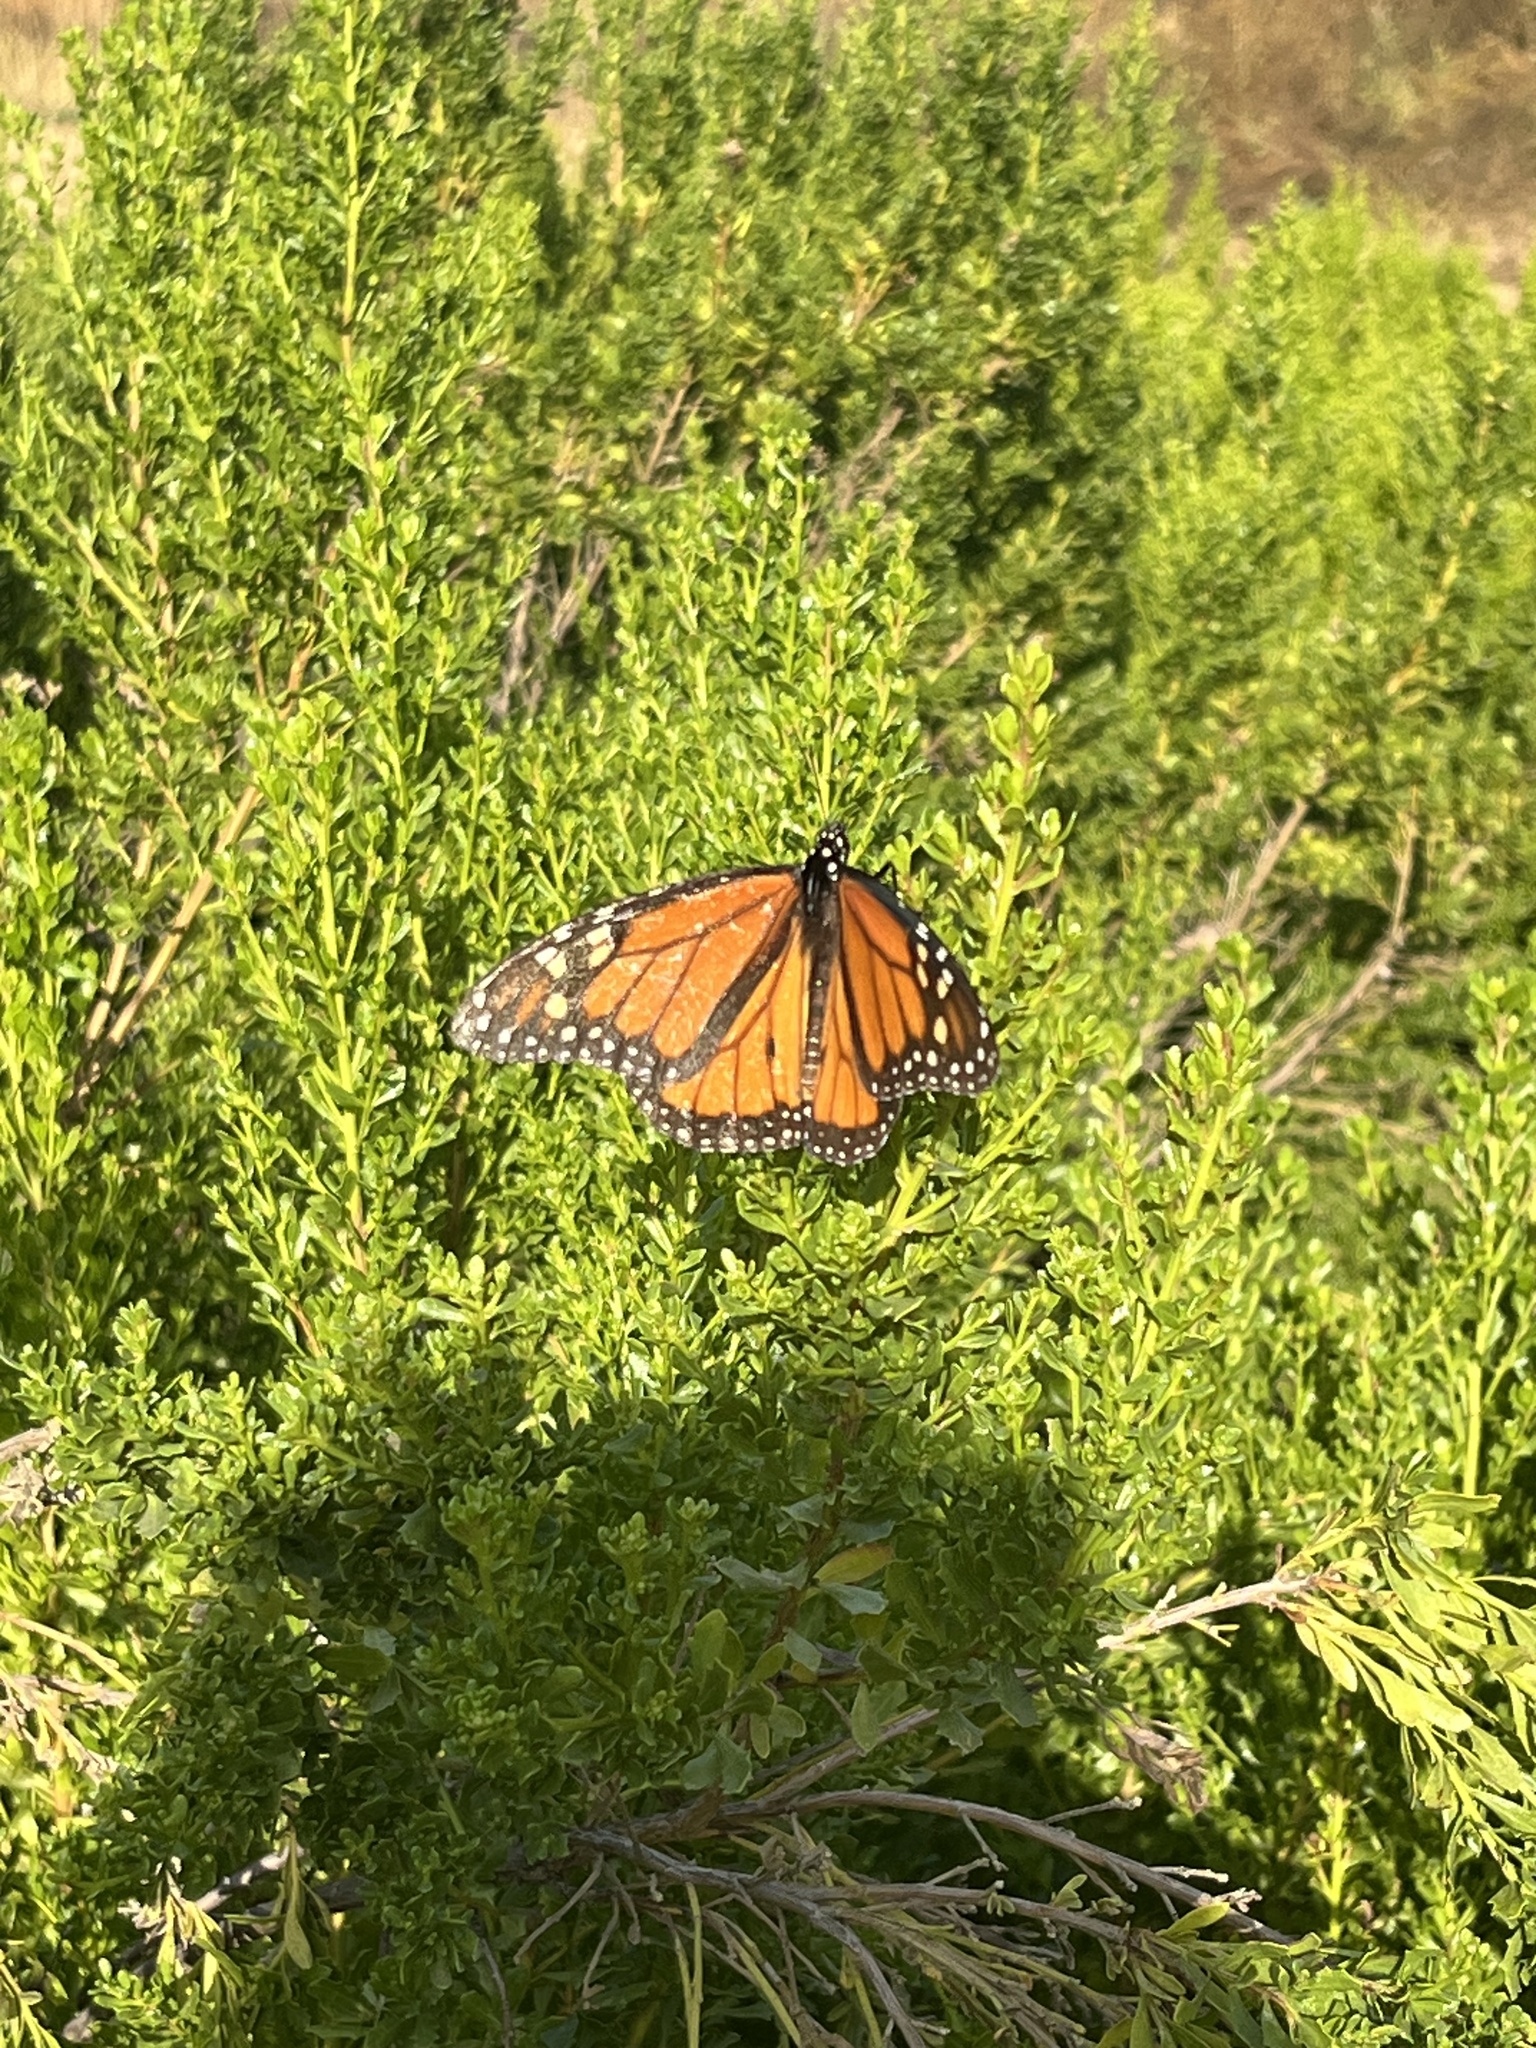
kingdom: Animalia
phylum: Arthropoda
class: Insecta
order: Lepidoptera
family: Nymphalidae
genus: Danaus
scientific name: Danaus plexippus
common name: Monarch
